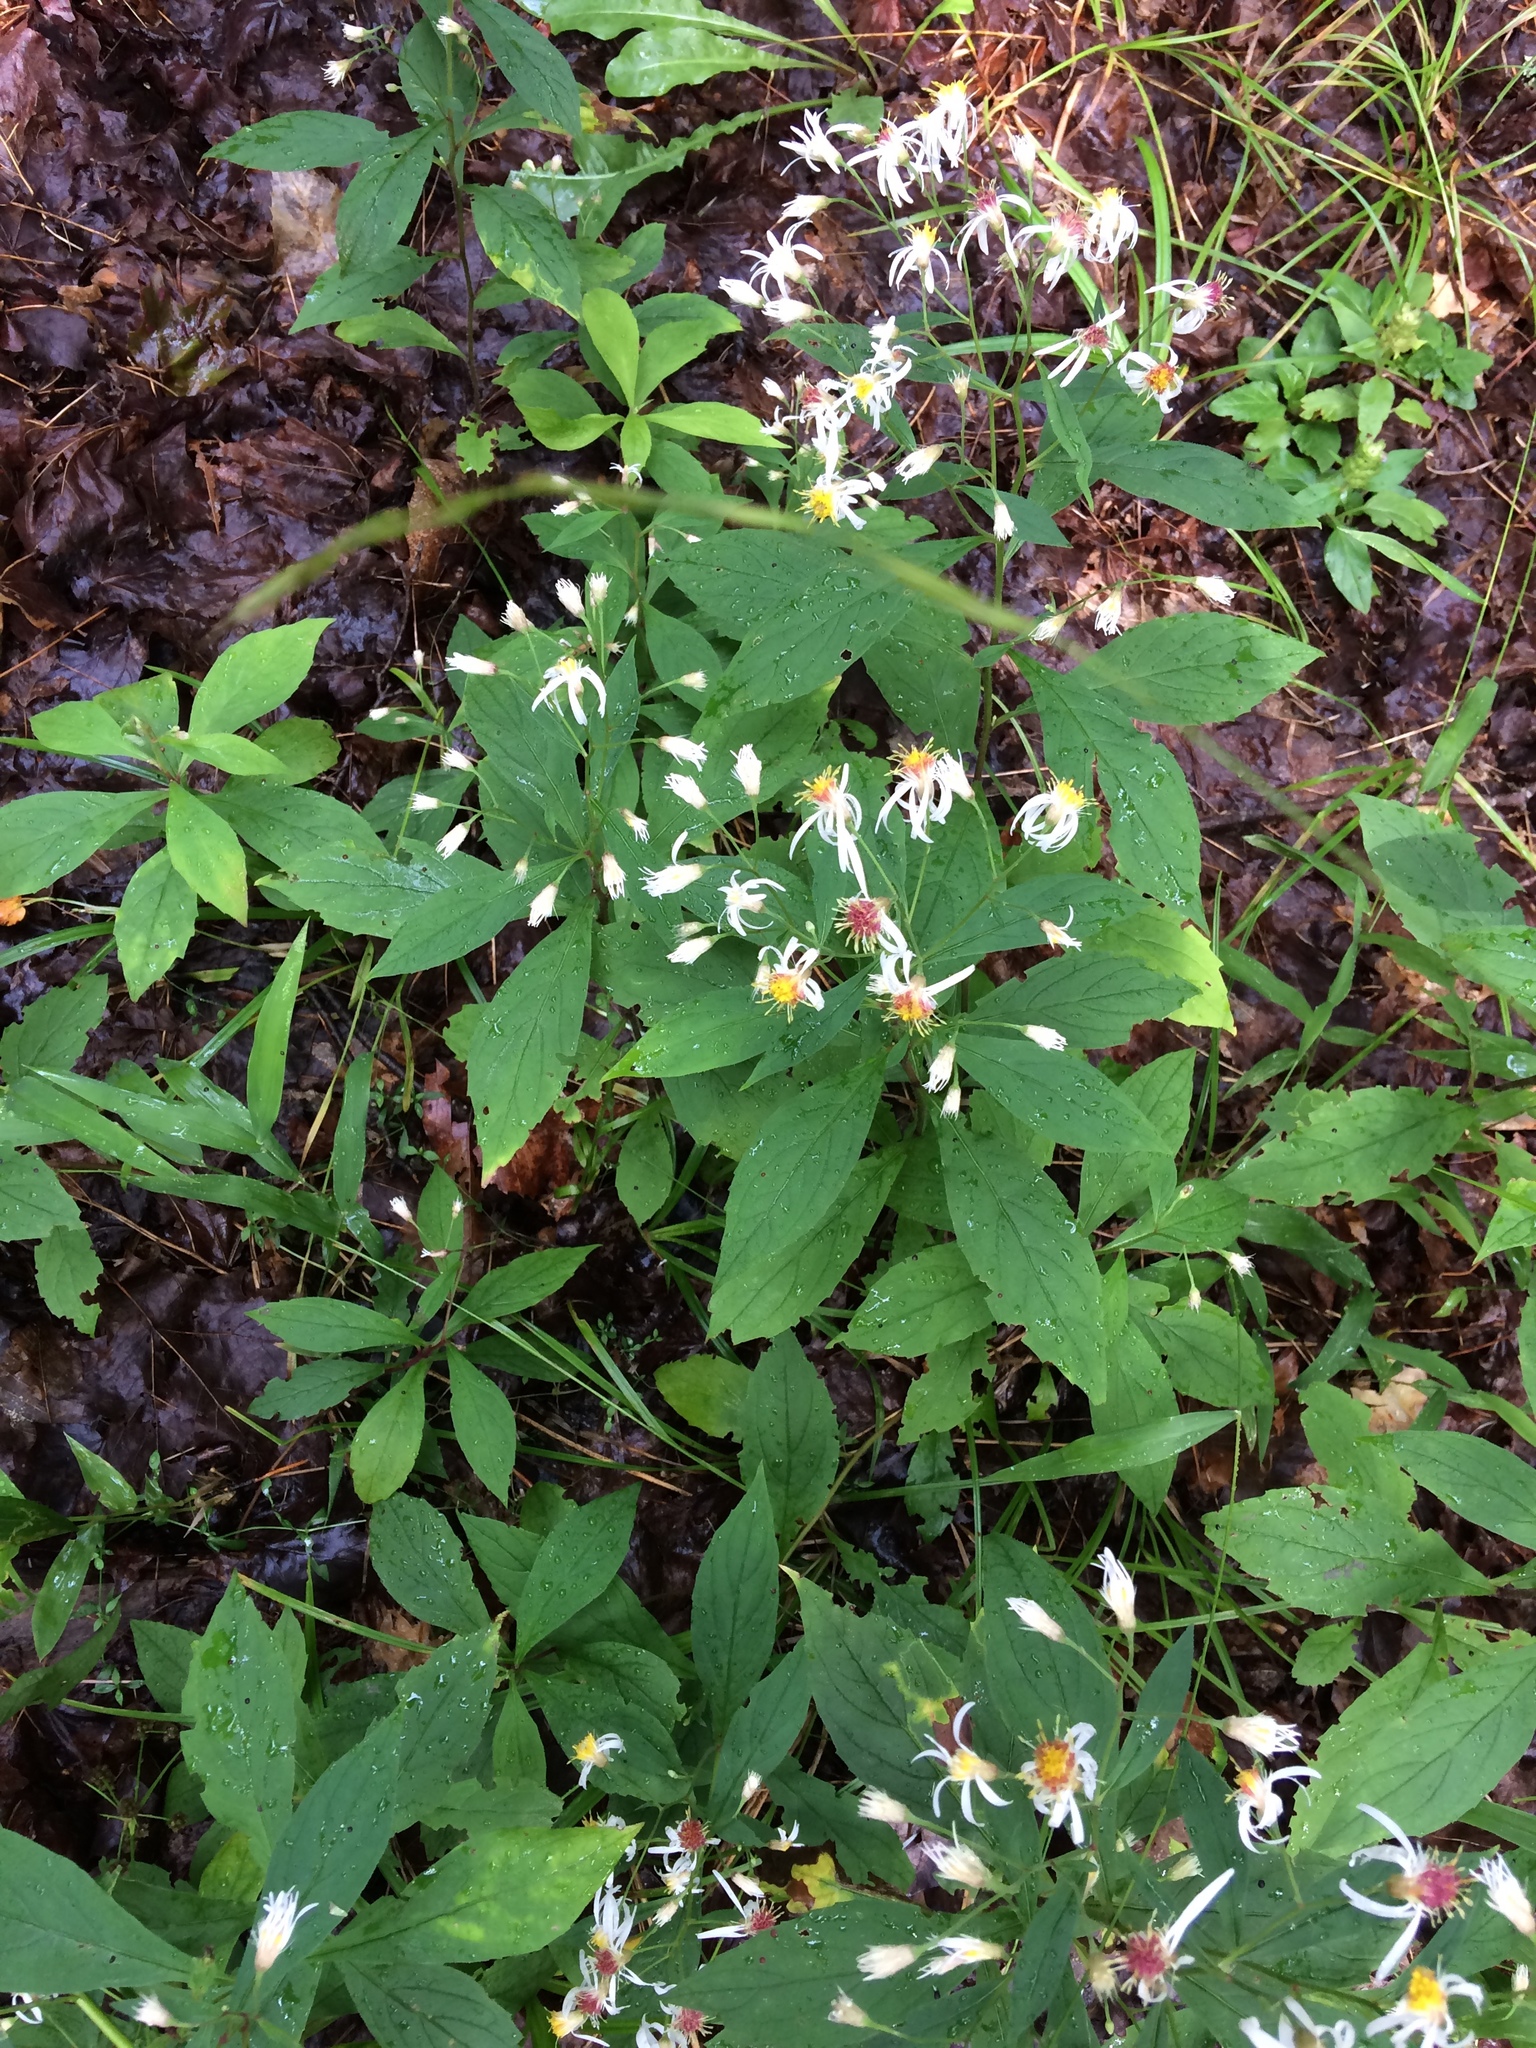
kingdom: Plantae
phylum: Tracheophyta
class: Magnoliopsida
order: Asterales
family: Asteraceae
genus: Oclemena
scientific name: Oclemena acuminata
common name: Mountain aster
